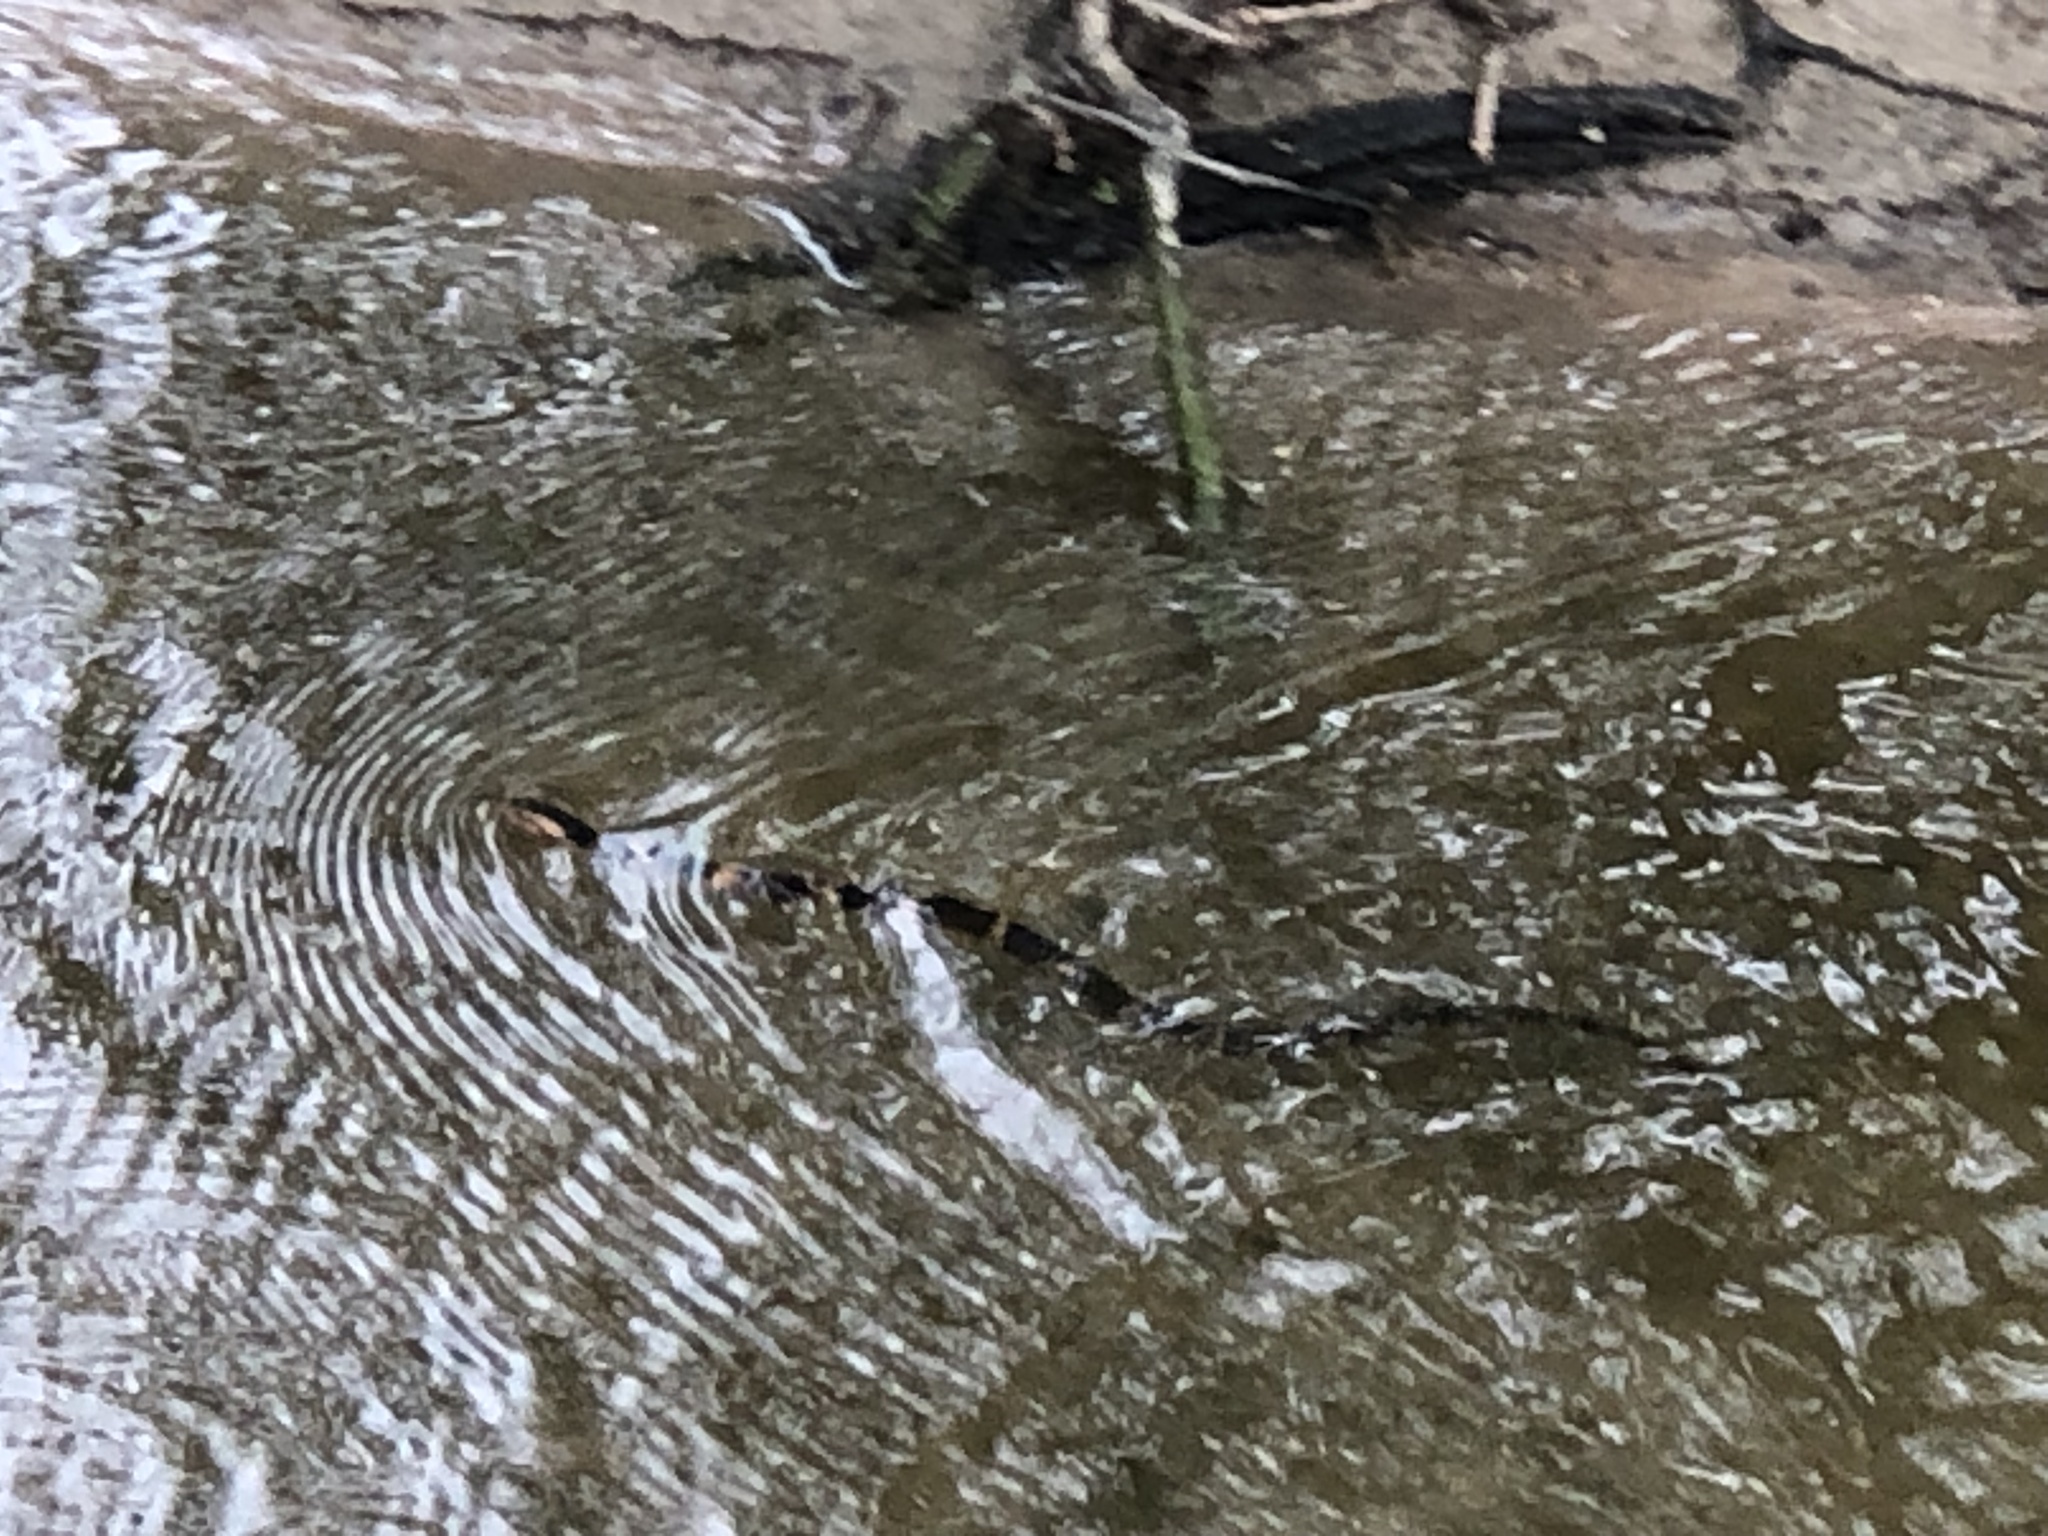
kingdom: Animalia
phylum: Chordata
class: Squamata
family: Colubridae
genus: Nerodia
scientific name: Nerodia fasciata
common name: Southern water snake
